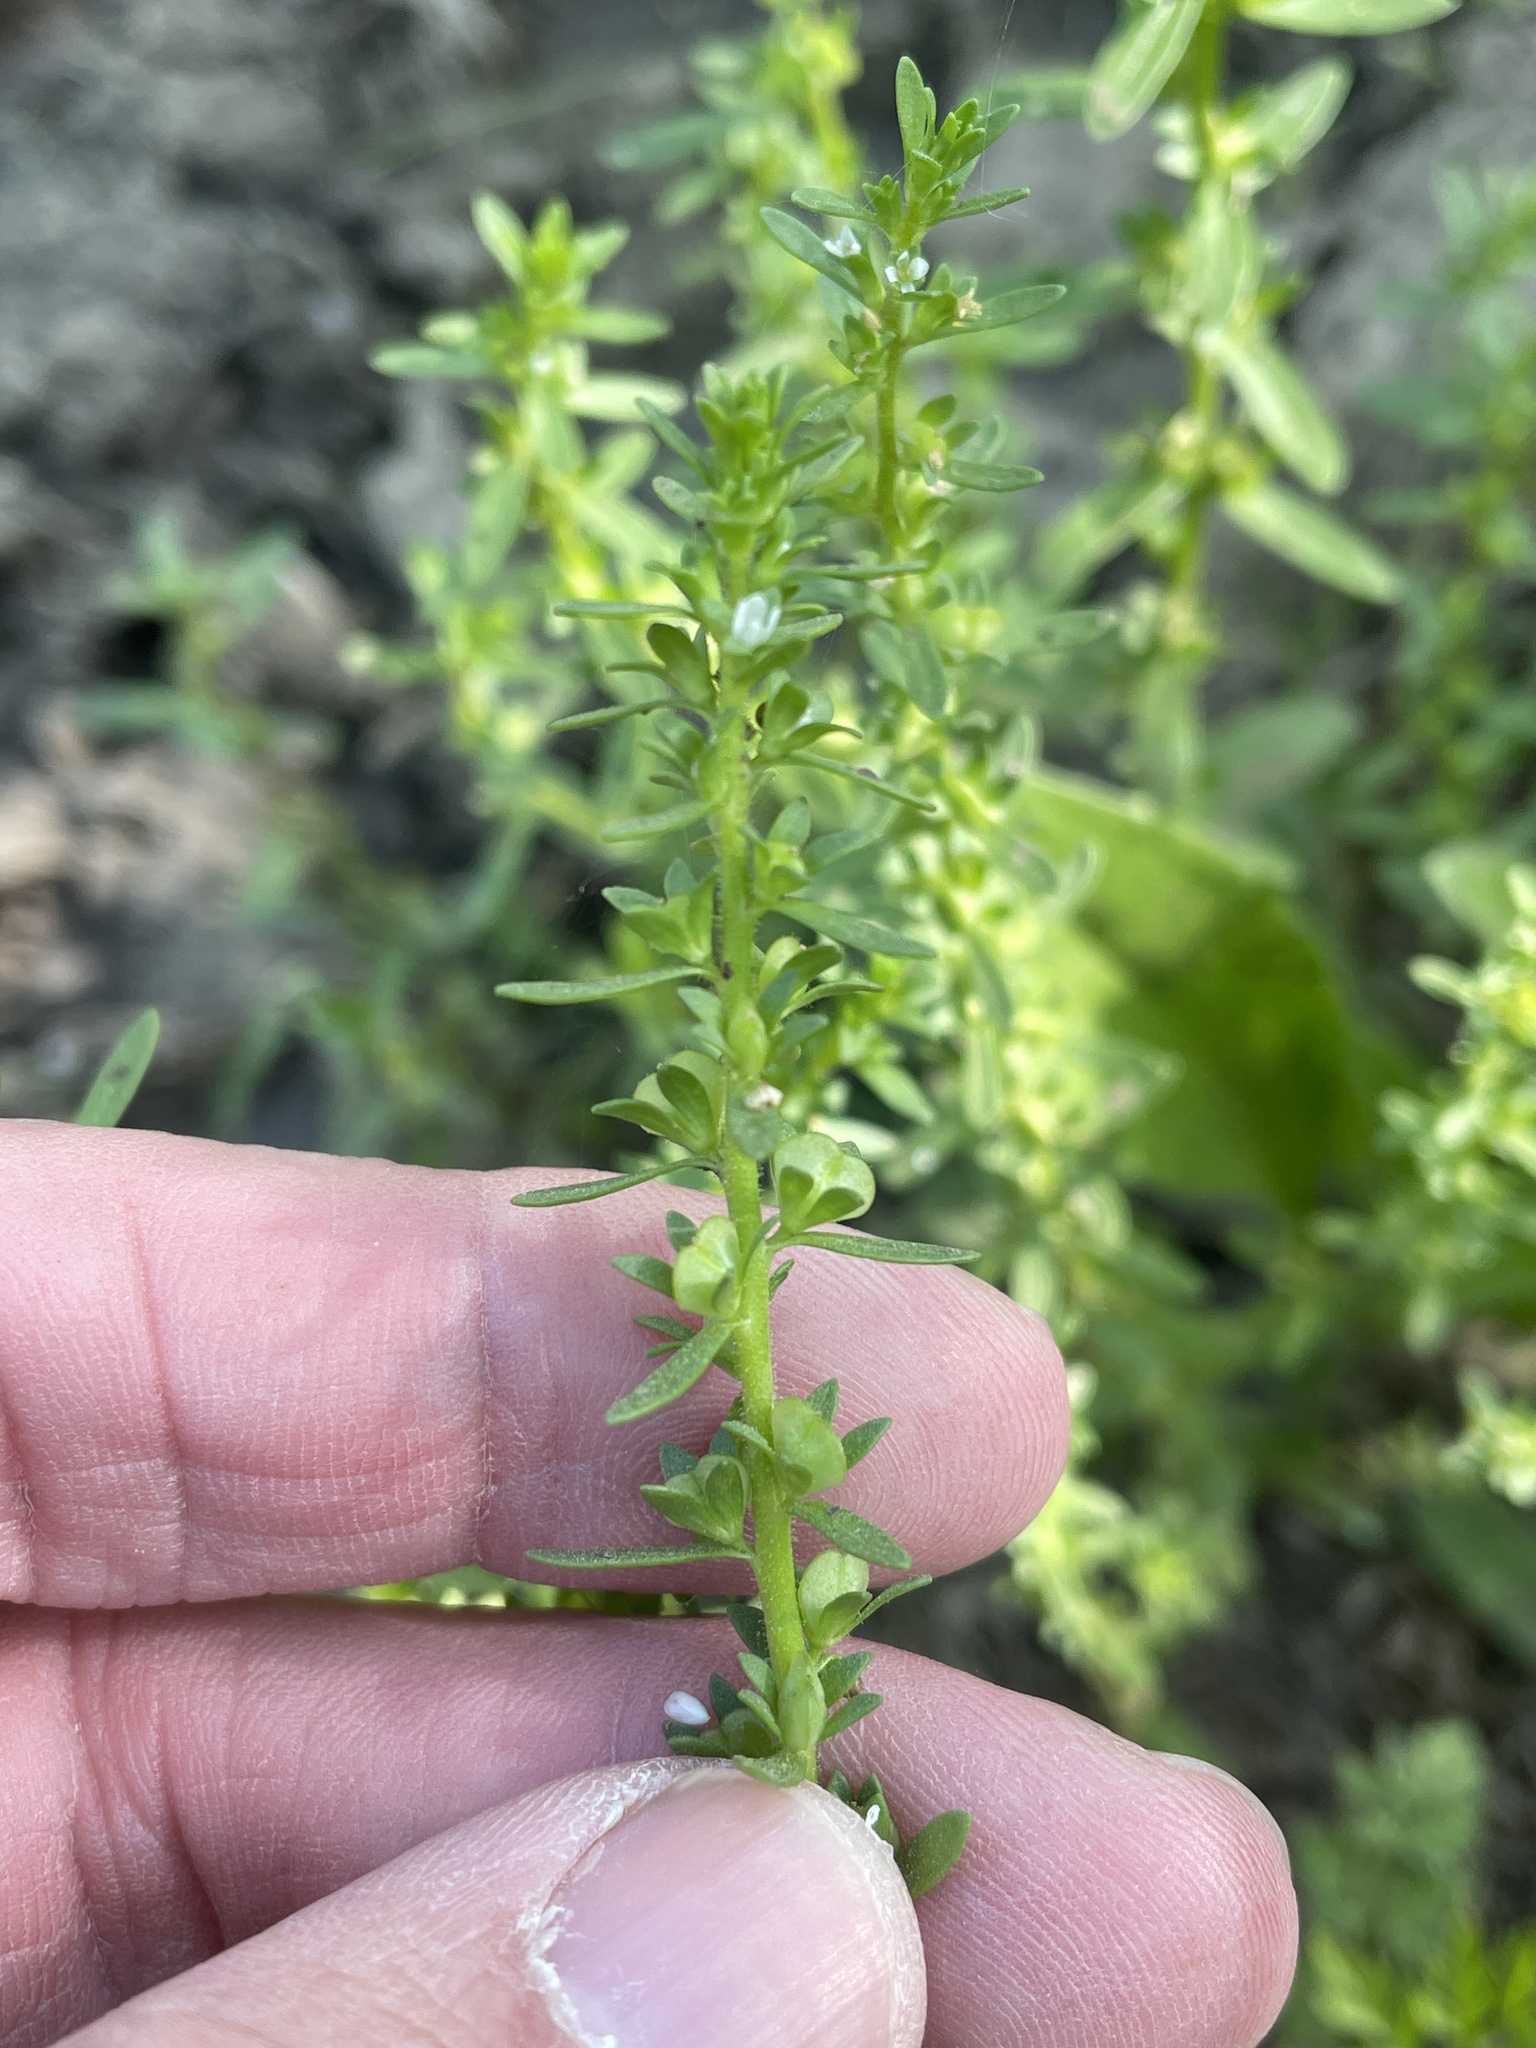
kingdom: Plantae
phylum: Tracheophyta
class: Magnoliopsida
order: Lamiales
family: Plantaginaceae
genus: Veronica
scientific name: Veronica peregrina
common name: Neckweed
